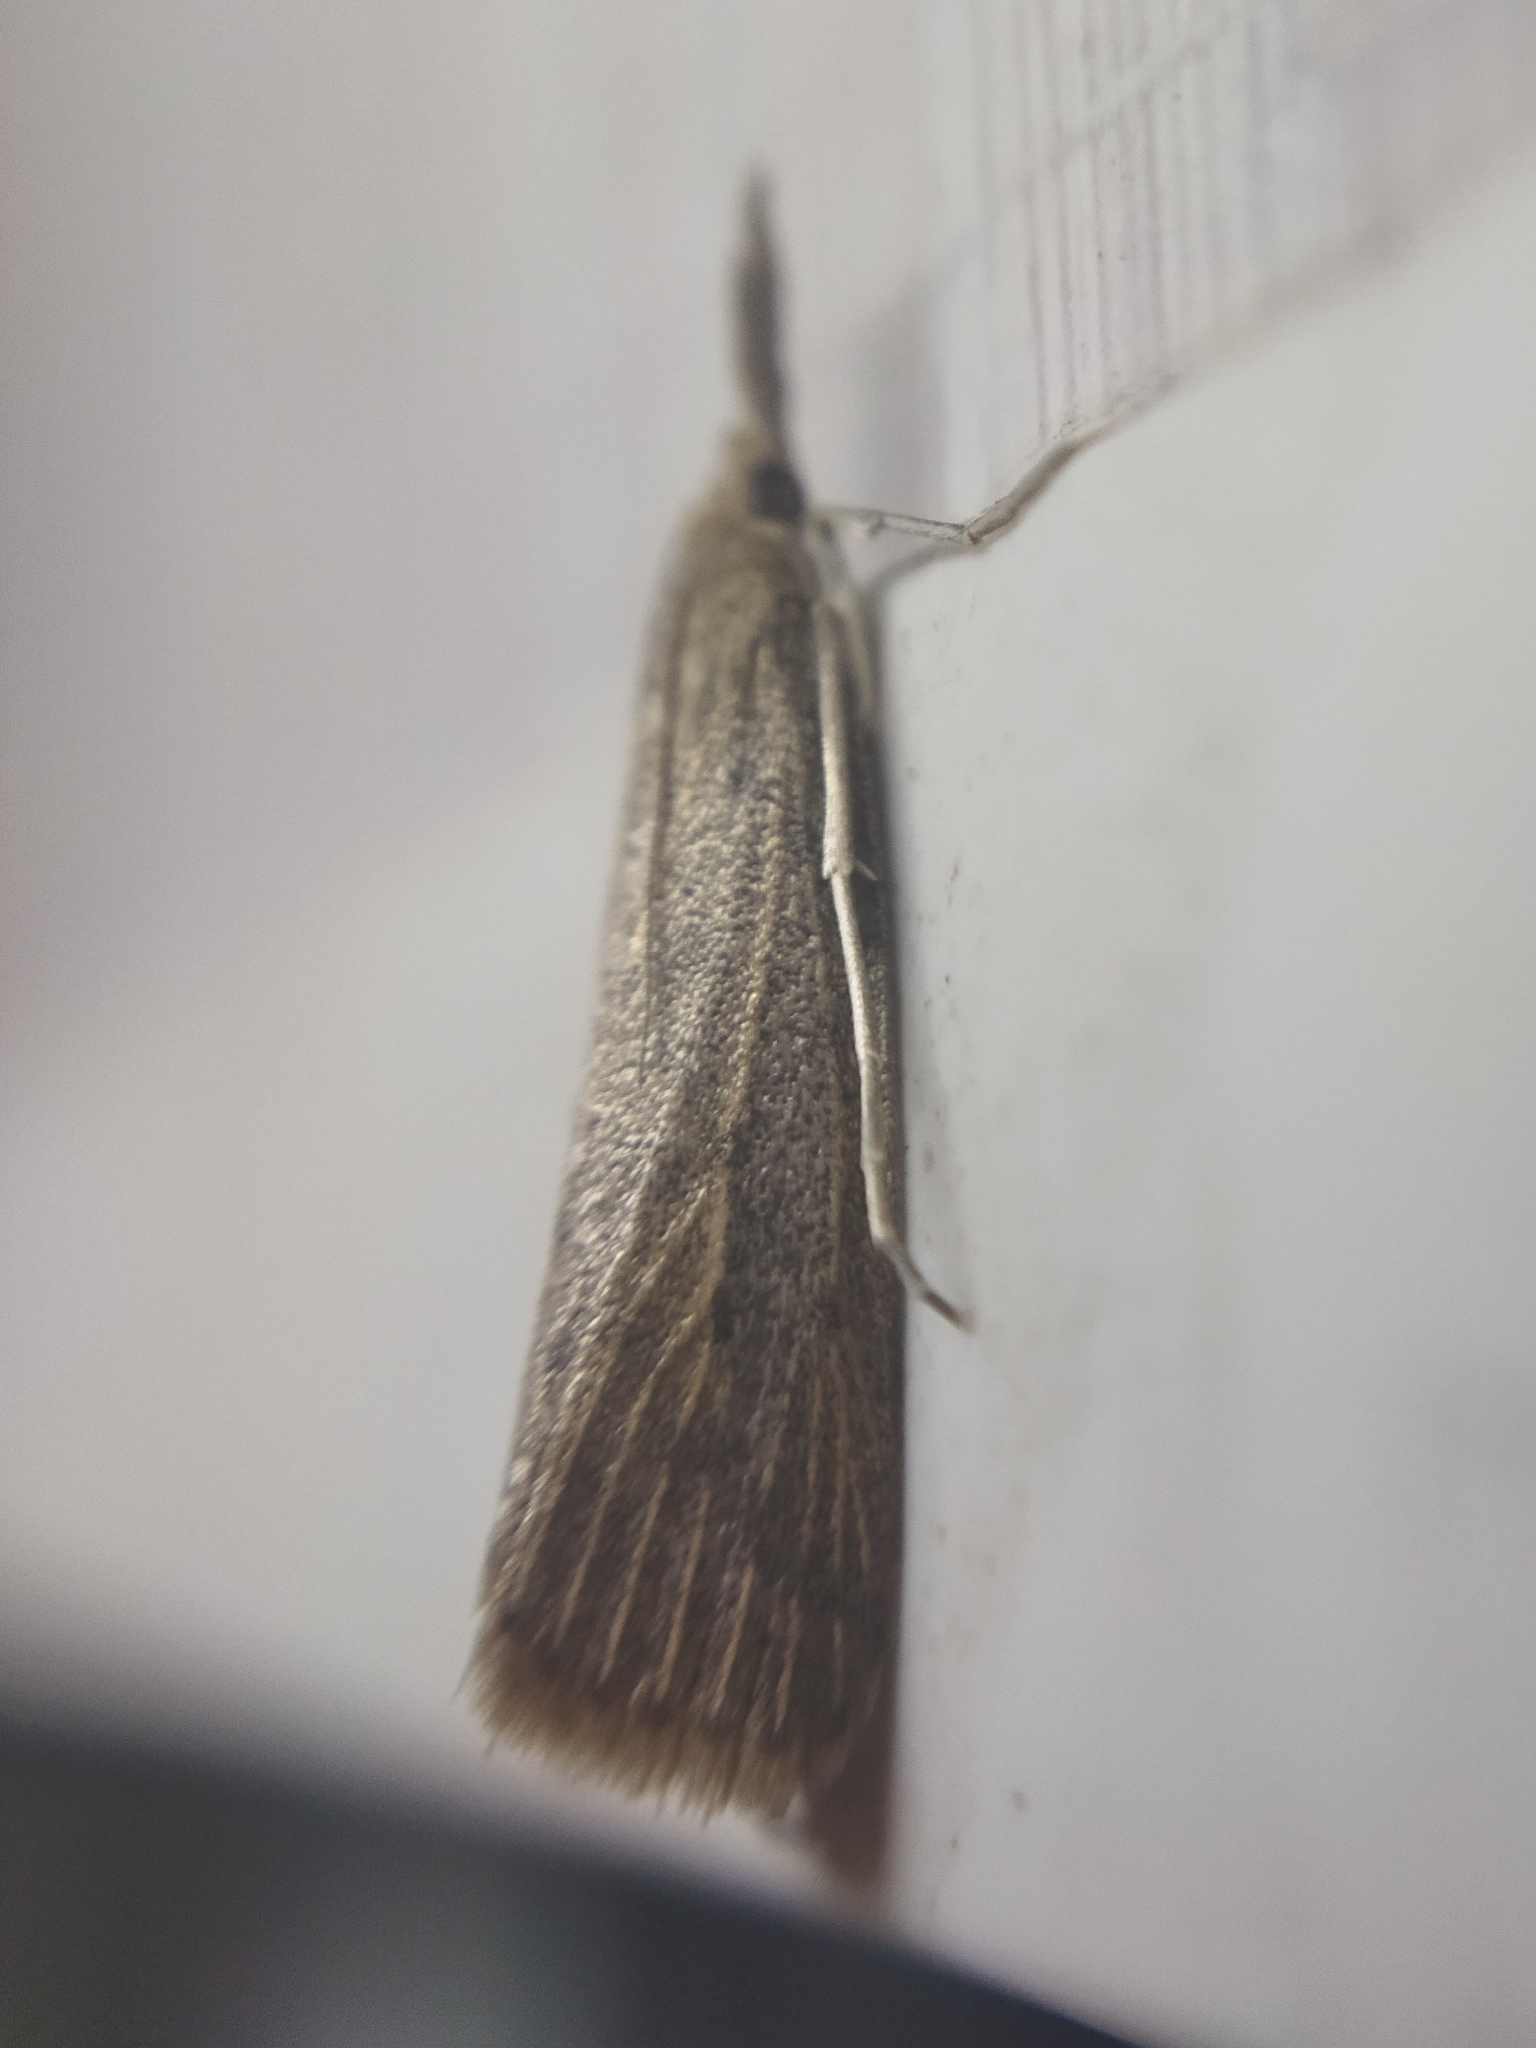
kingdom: Animalia
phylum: Arthropoda
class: Insecta
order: Lepidoptera
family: Crambidae
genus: Schoenobius
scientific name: Schoenobius gigantella
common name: Giant water-veneer
